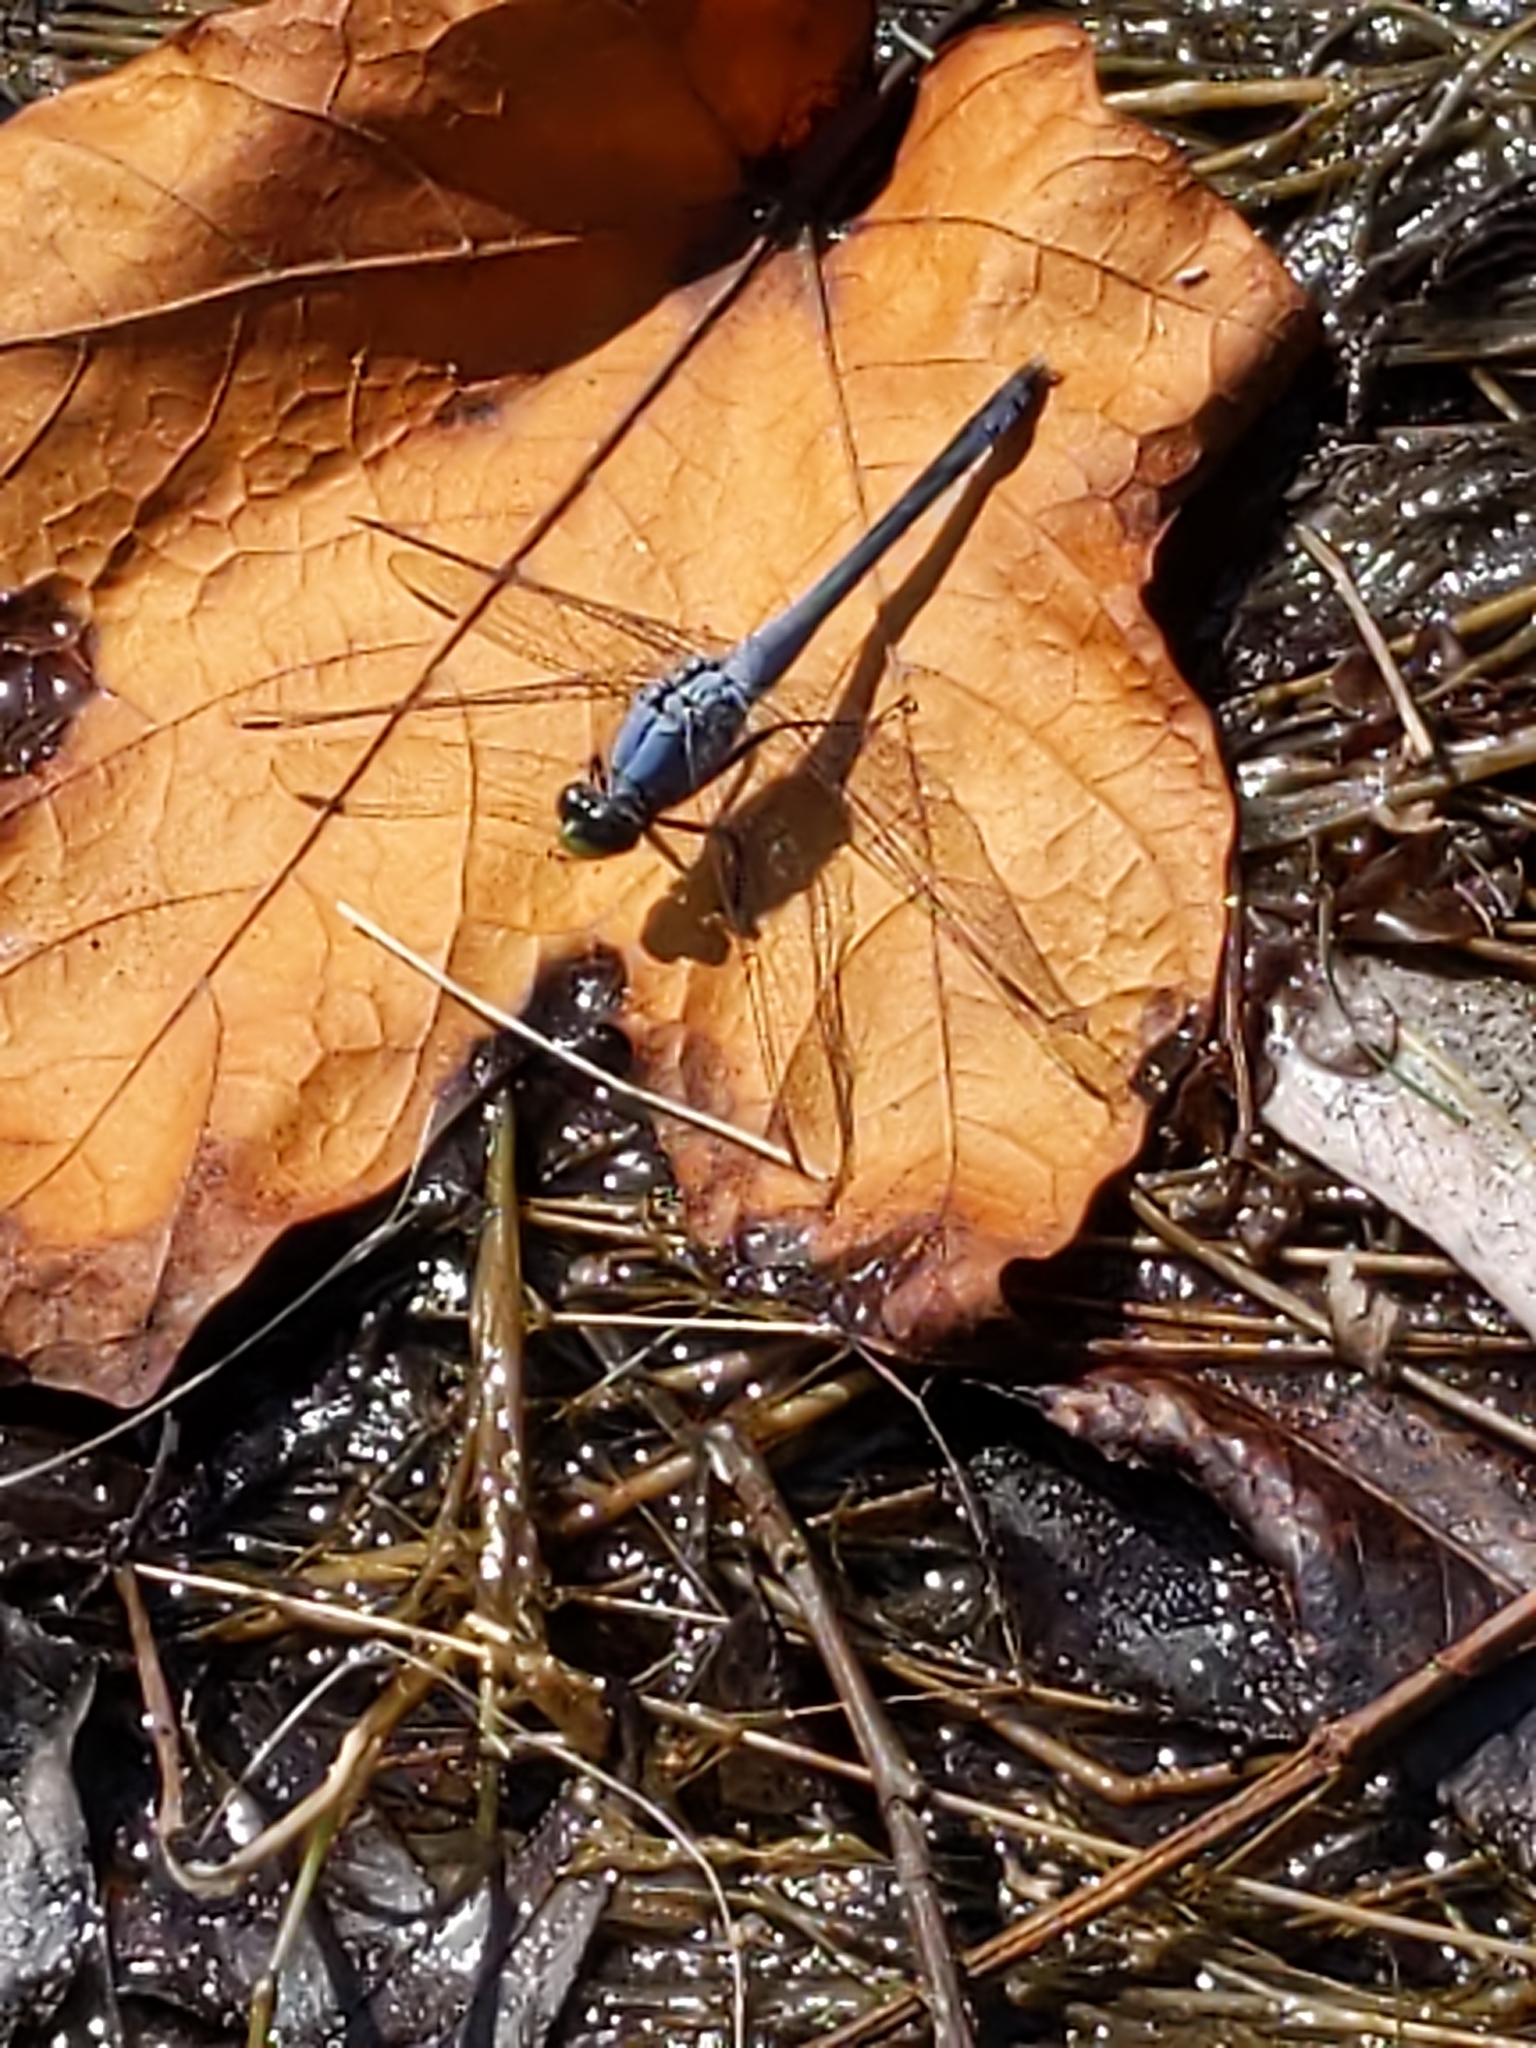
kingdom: Animalia
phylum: Arthropoda
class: Insecta
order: Odonata
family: Libellulidae
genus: Erythemis
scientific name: Erythemis simplicicollis
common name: Eastern pondhawk
